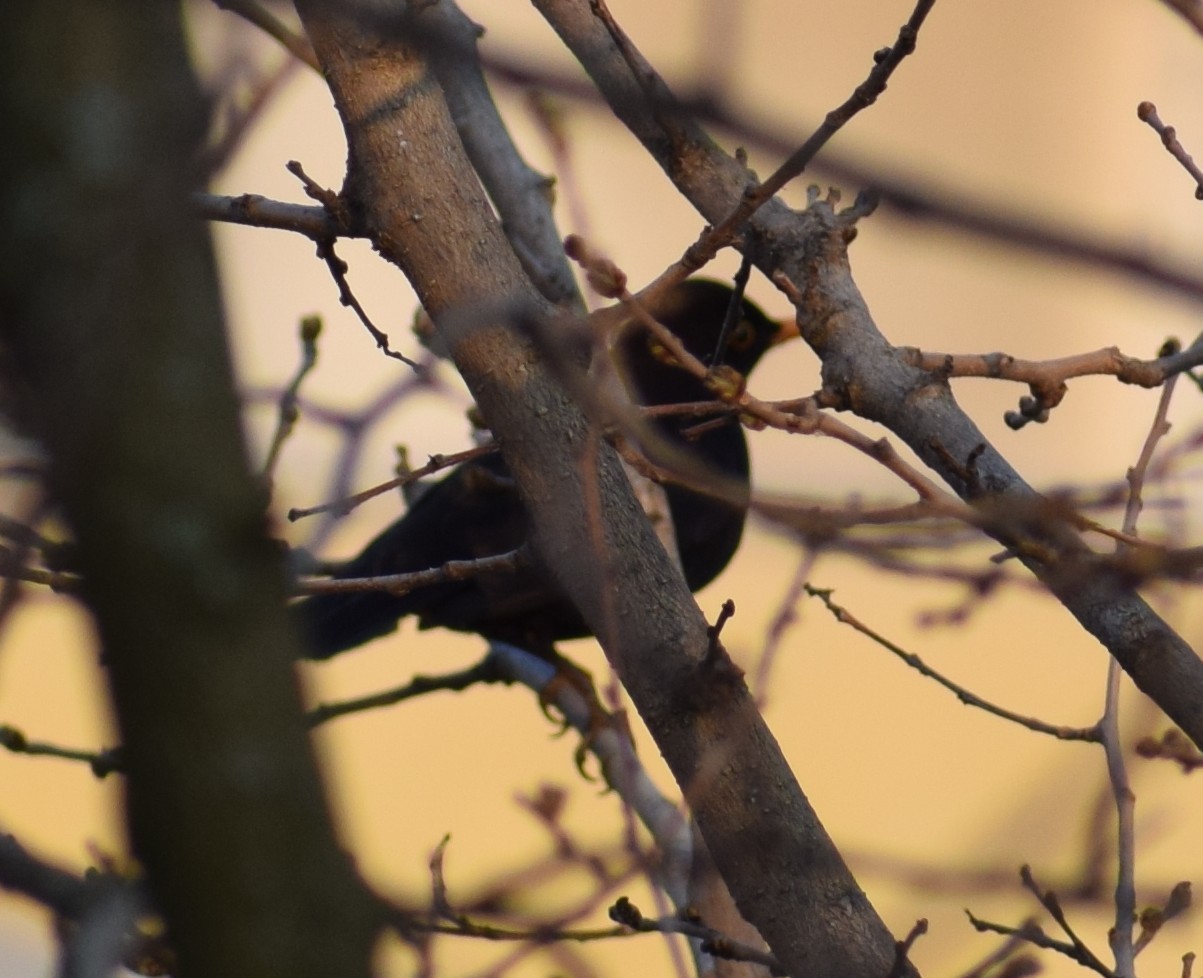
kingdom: Animalia
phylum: Chordata
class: Aves
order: Passeriformes
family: Turdidae
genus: Turdus
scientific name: Turdus merula
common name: Common blackbird
